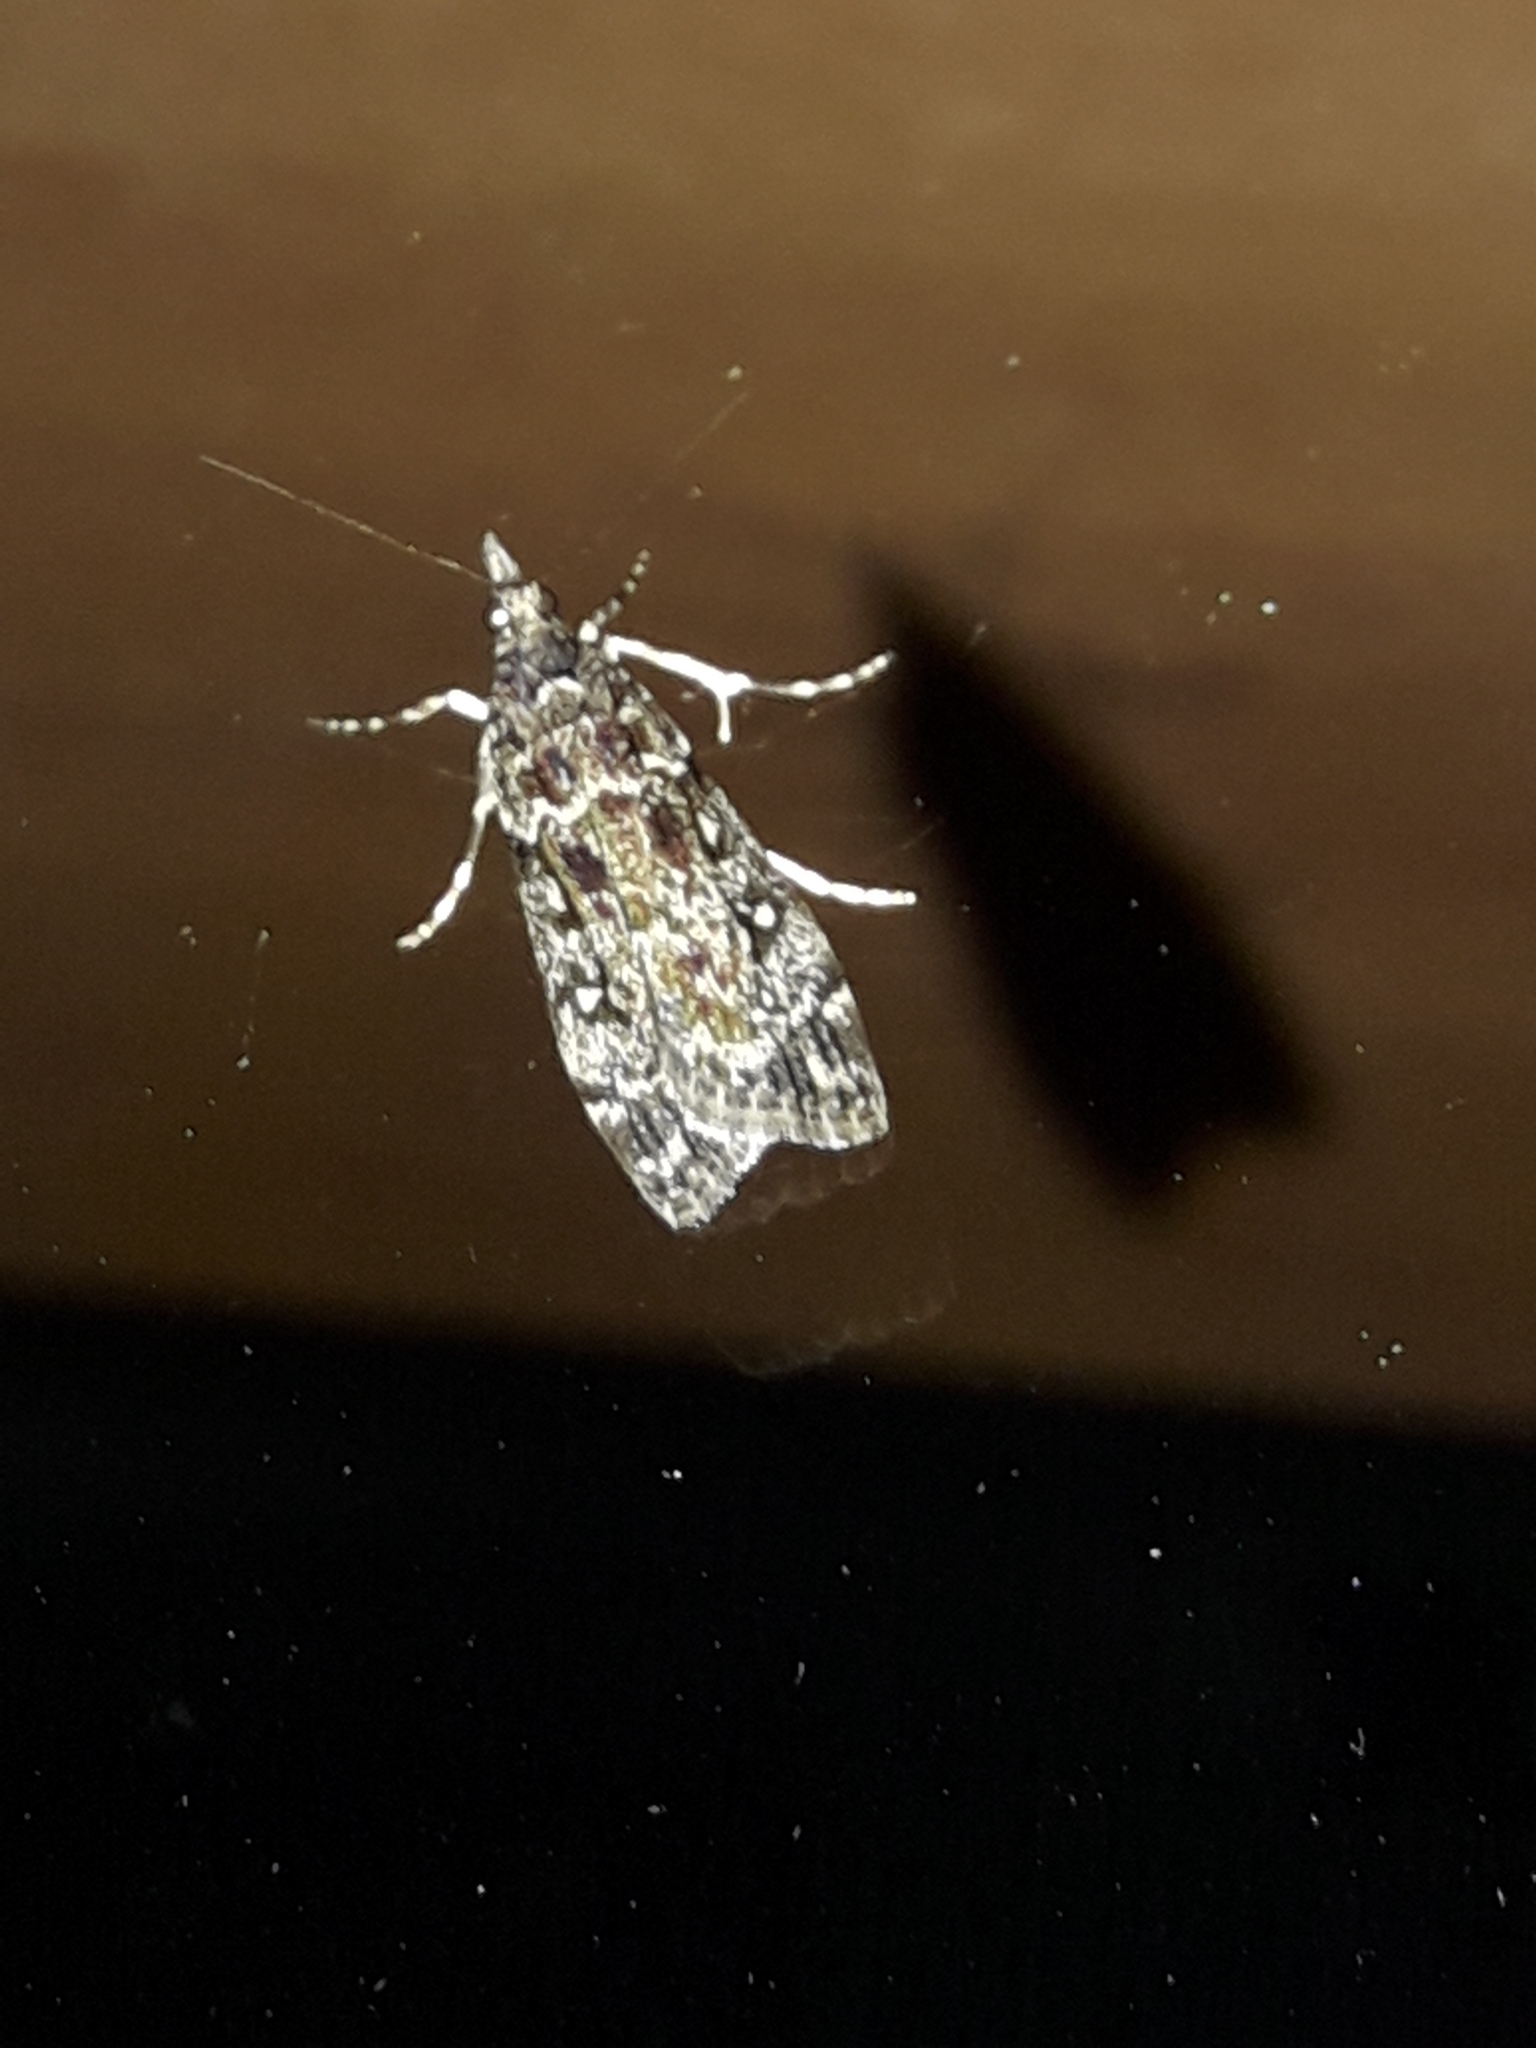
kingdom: Animalia
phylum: Arthropoda
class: Insecta
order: Lepidoptera
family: Crambidae
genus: Eudonia
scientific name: Eudonia philerga
